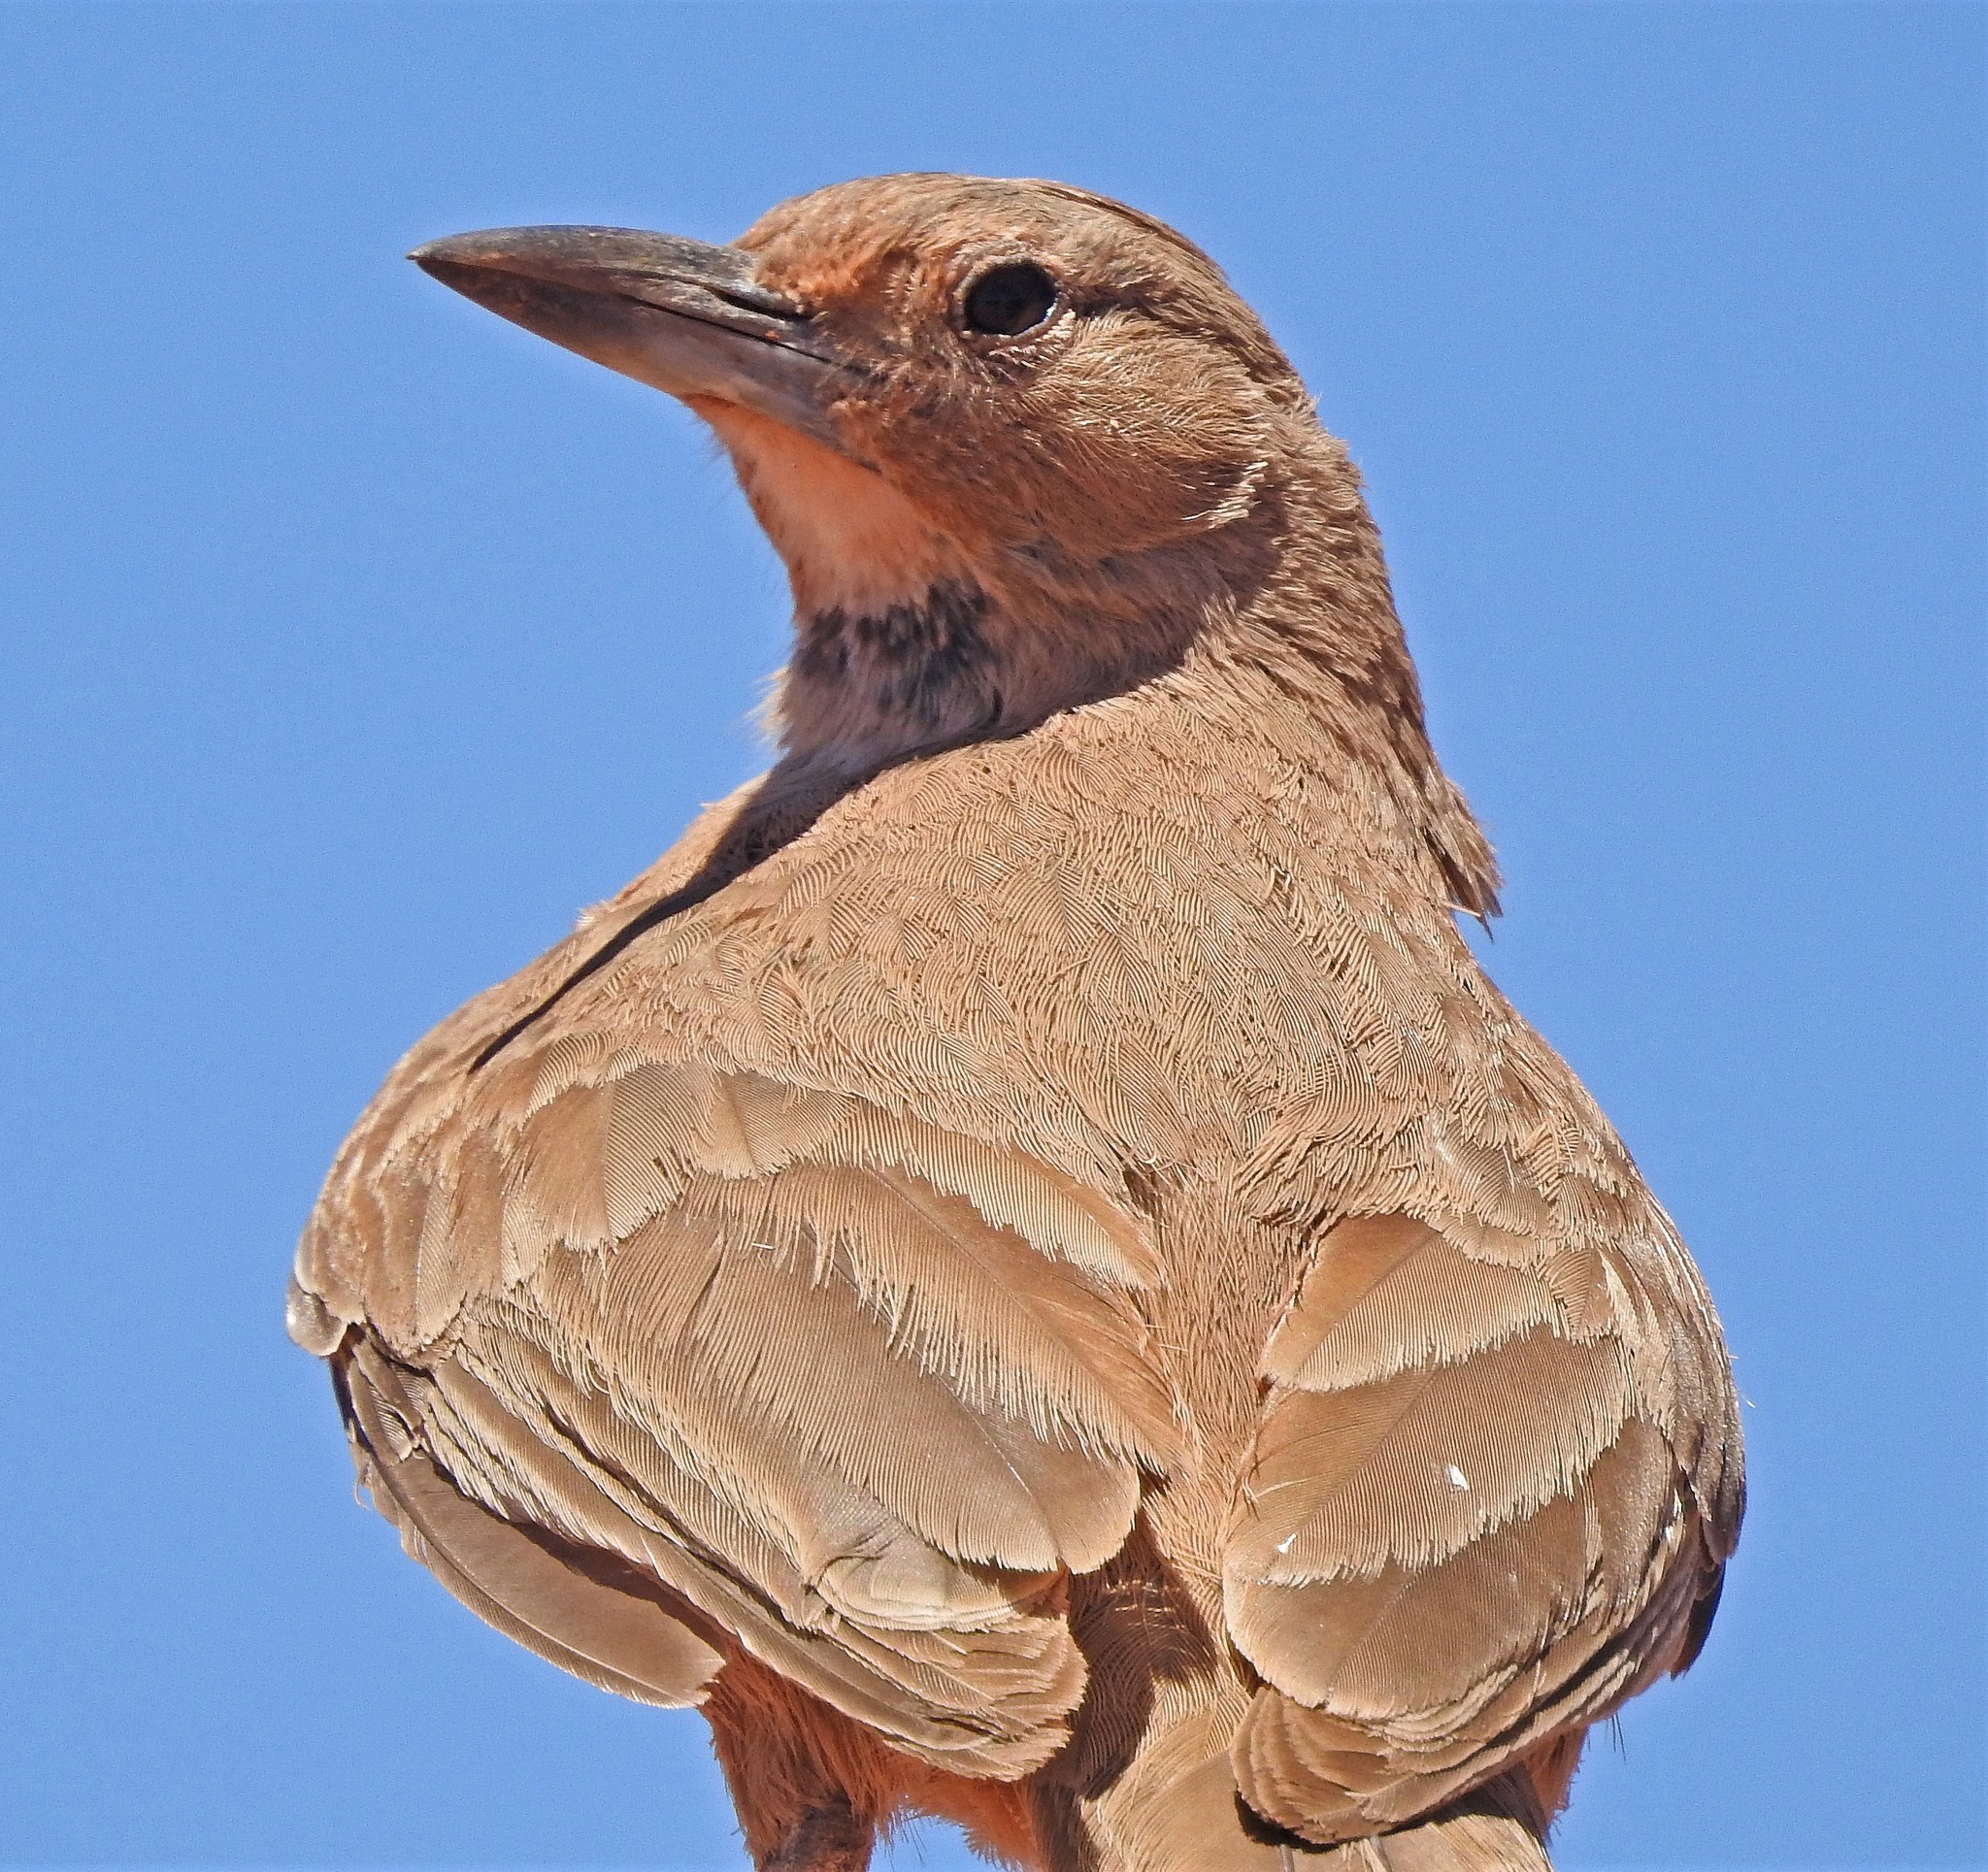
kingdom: Animalia
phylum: Chordata
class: Aves
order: Passeriformes
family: Furnariidae
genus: Pseudoseisura
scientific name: Pseudoseisura gutturalis
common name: White-throated cacholote
